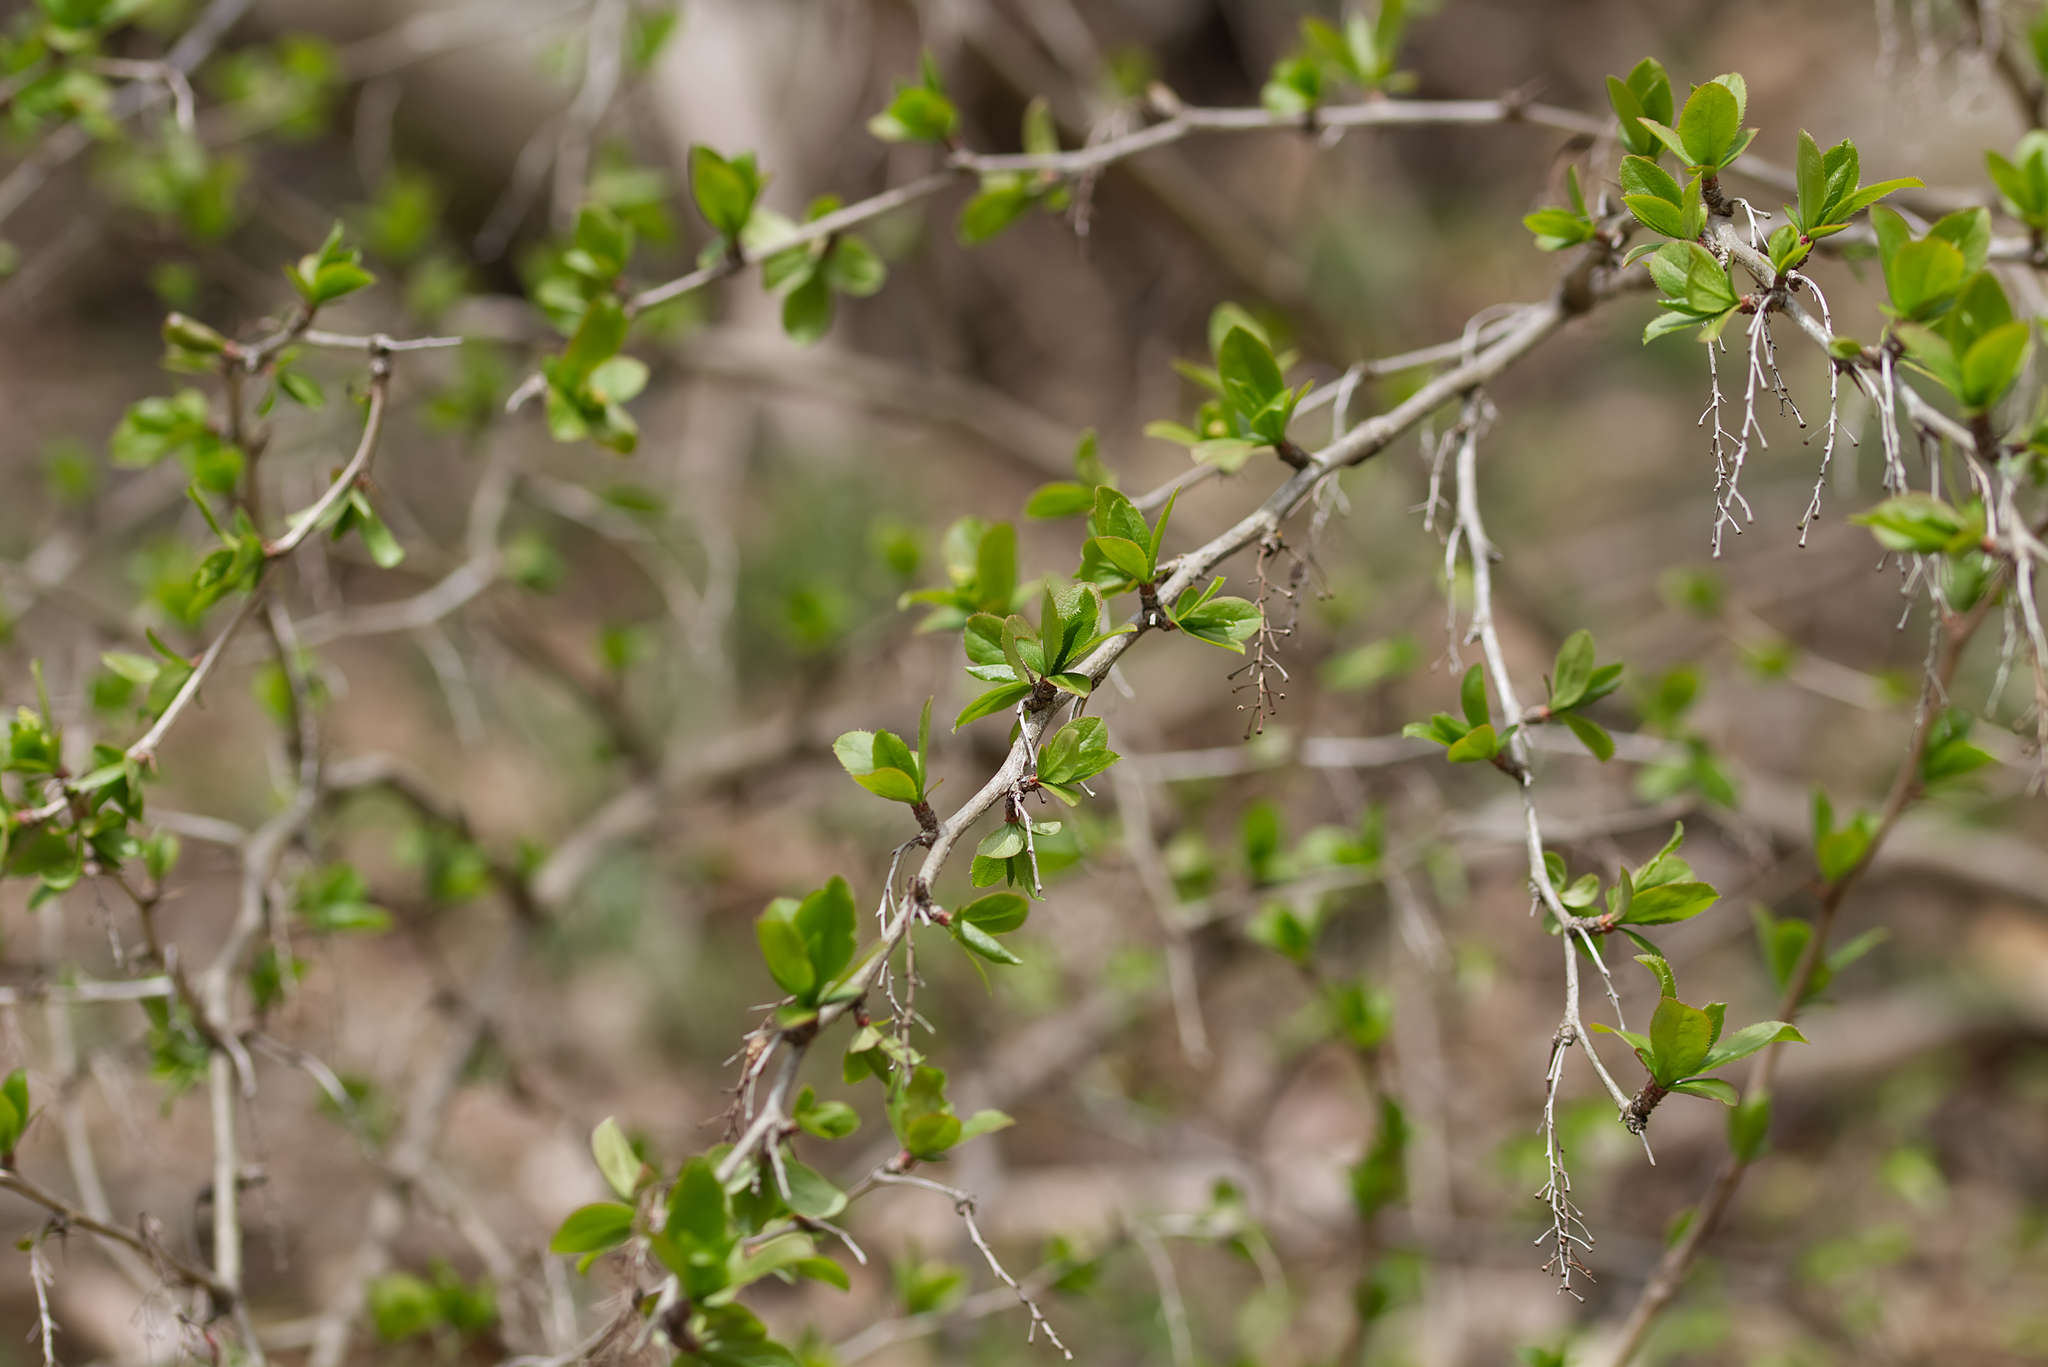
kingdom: Plantae
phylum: Tracheophyta
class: Magnoliopsida
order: Ranunculales
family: Berberidaceae
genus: Berberis
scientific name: Berberis vulgaris
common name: Barberry
